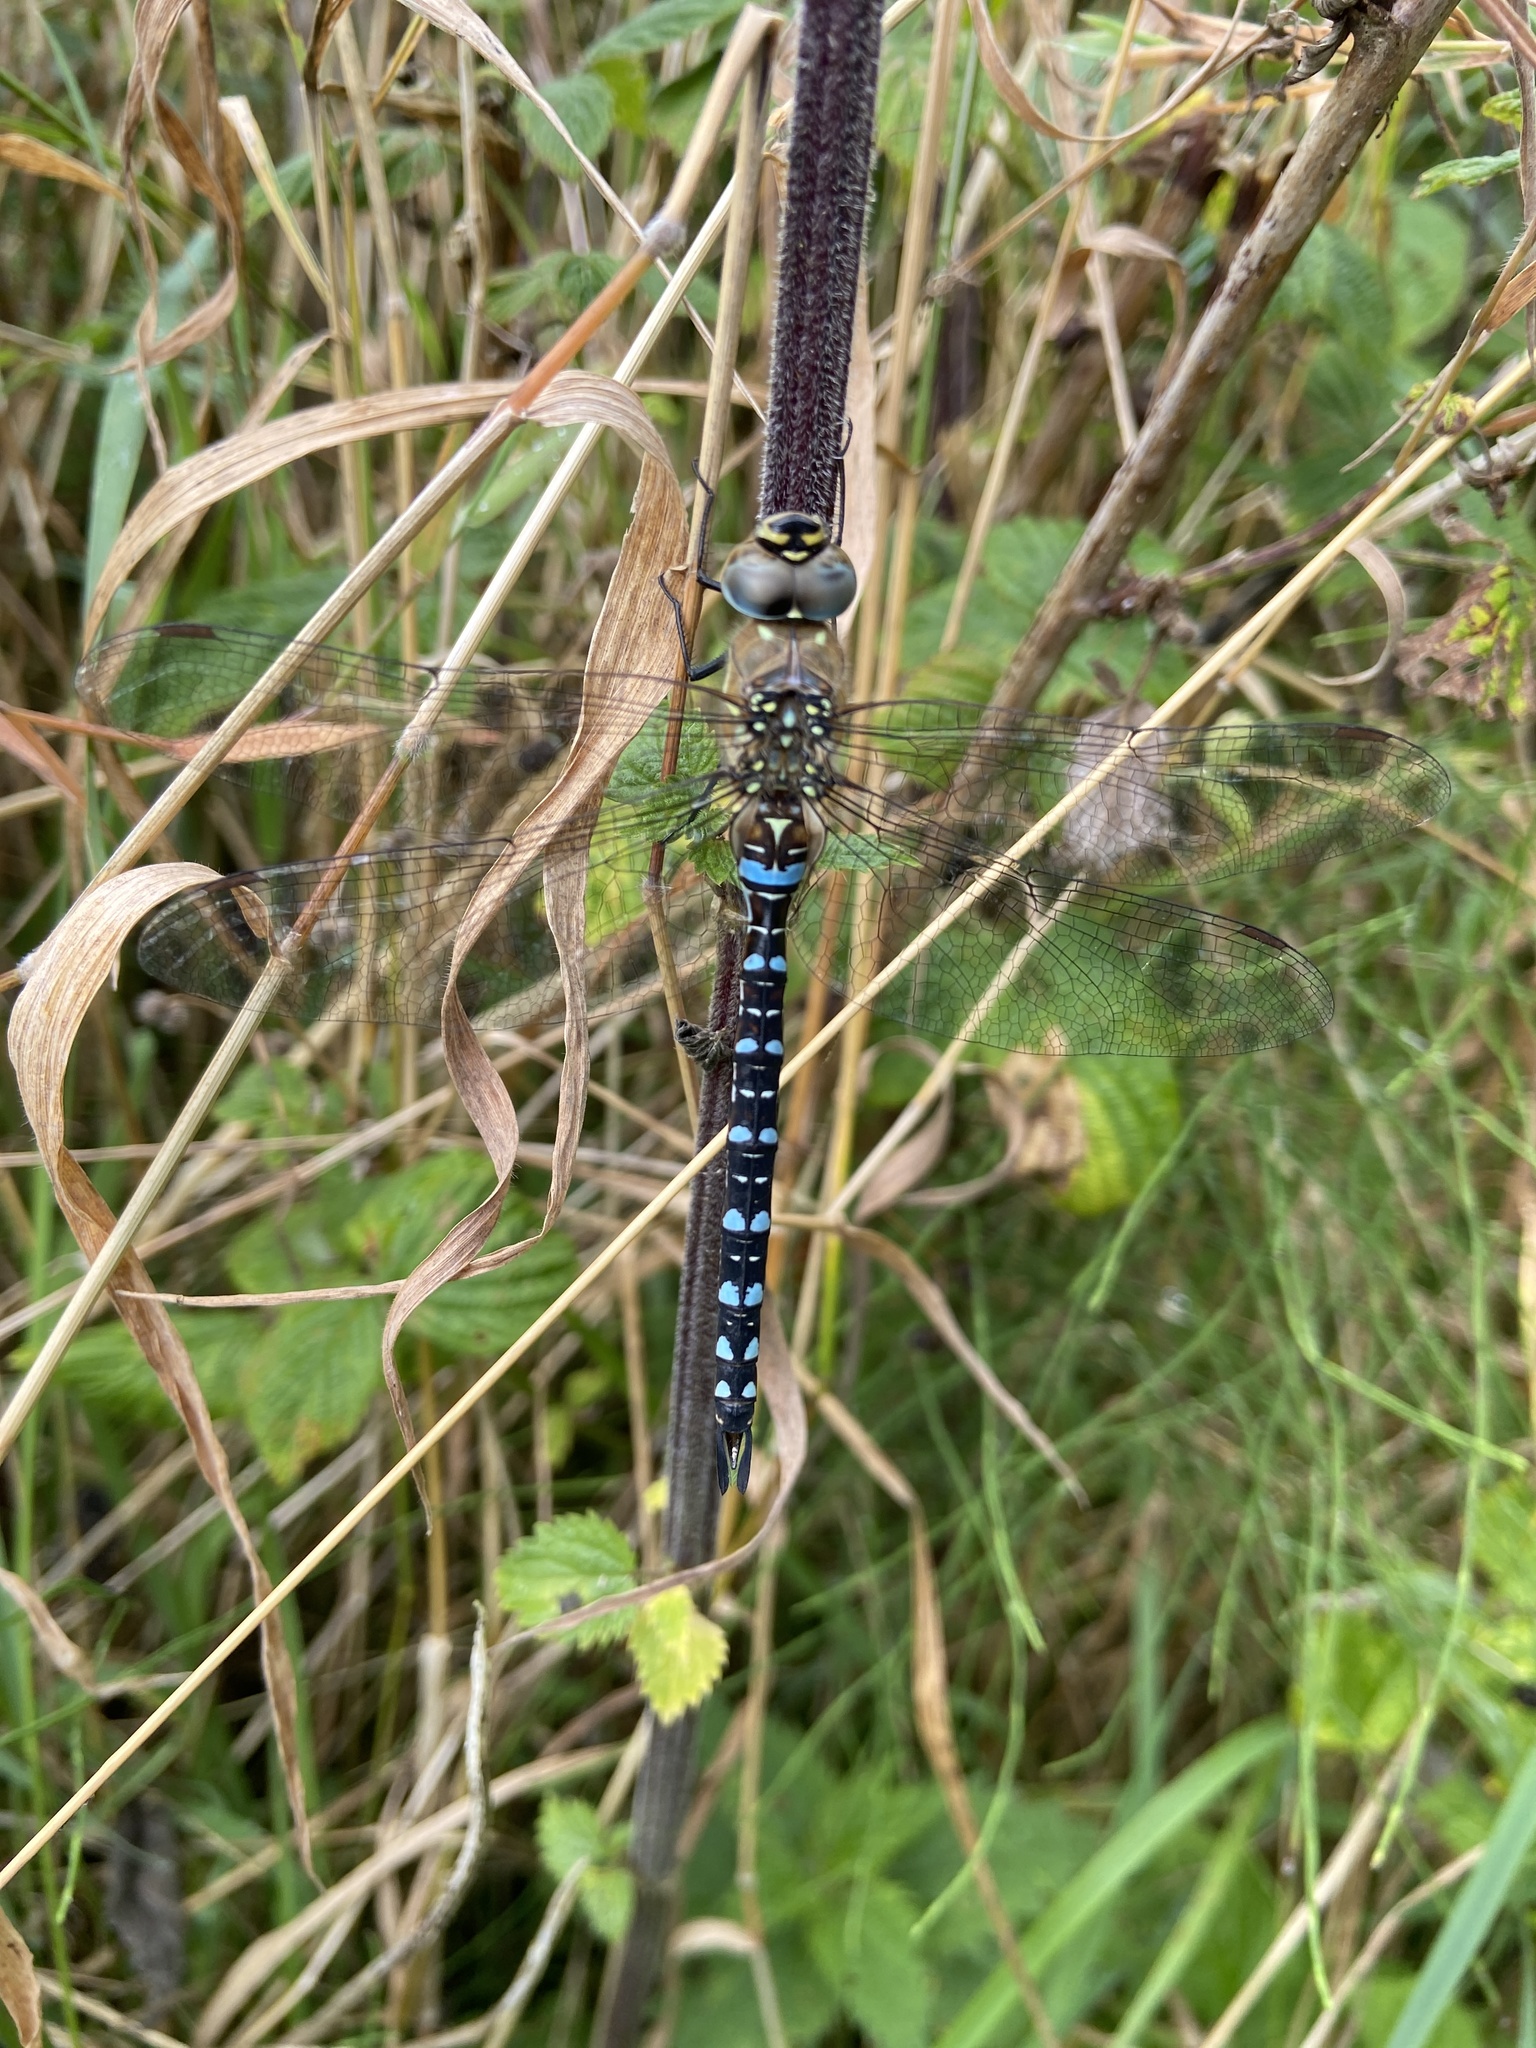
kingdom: Animalia
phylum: Arthropoda
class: Insecta
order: Odonata
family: Aeshnidae
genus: Aeshna
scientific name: Aeshna mixta
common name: Migrant hawker
